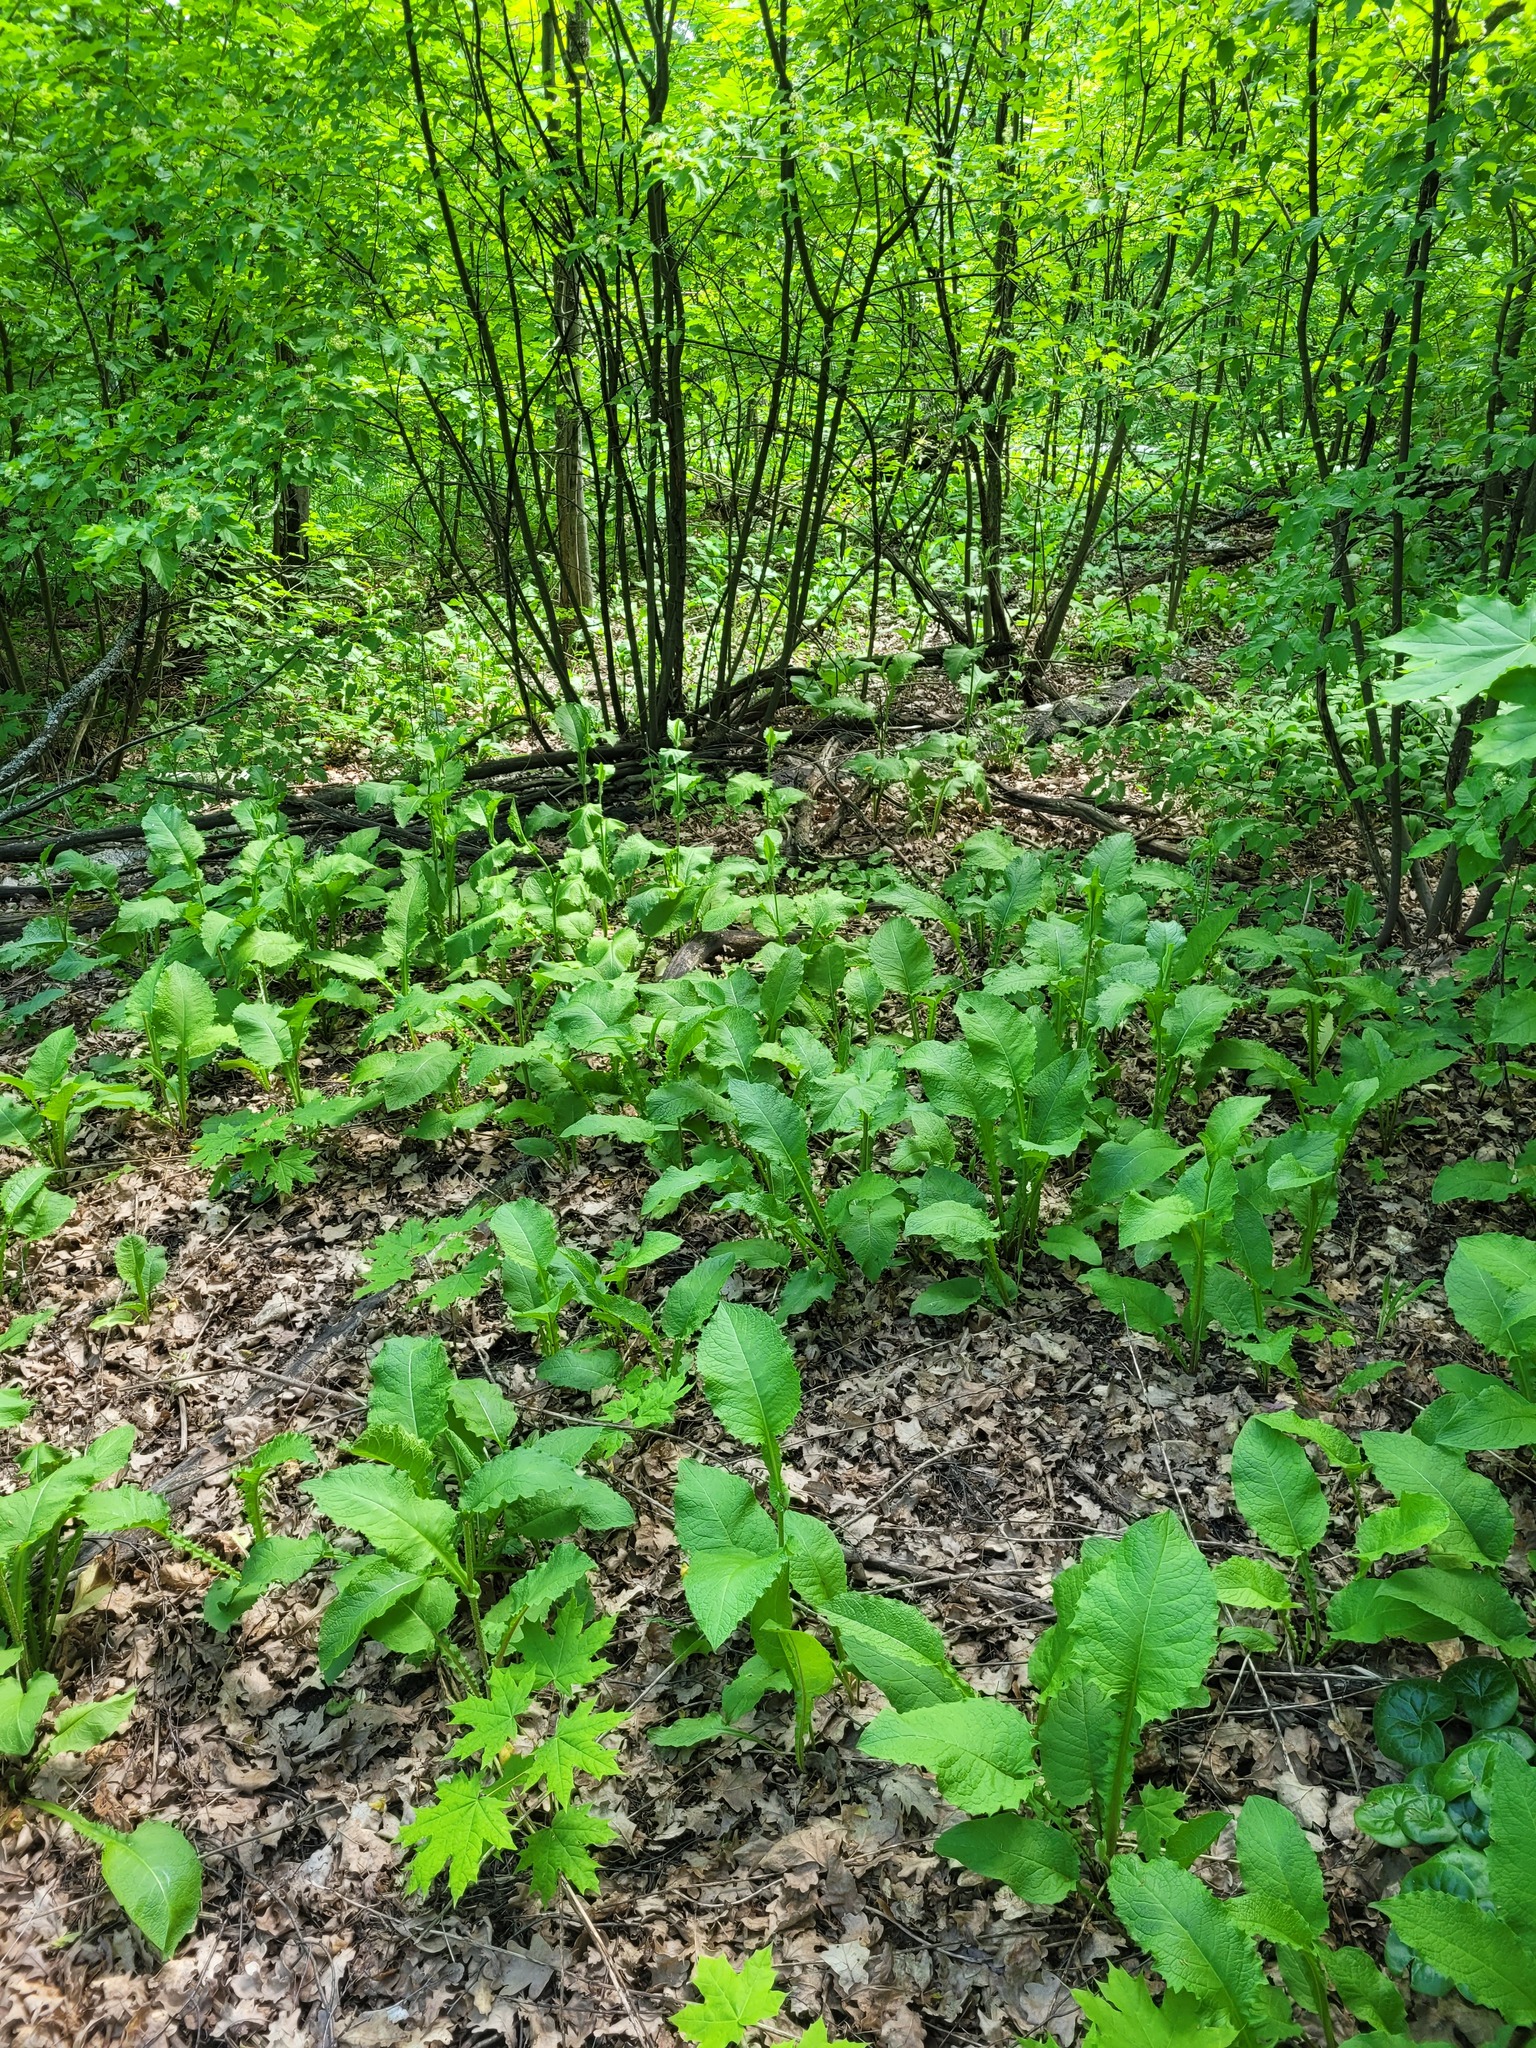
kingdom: Plantae
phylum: Tracheophyta
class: Magnoliopsida
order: Asterales
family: Asteraceae
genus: Crepis
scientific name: Crepis sibirica
